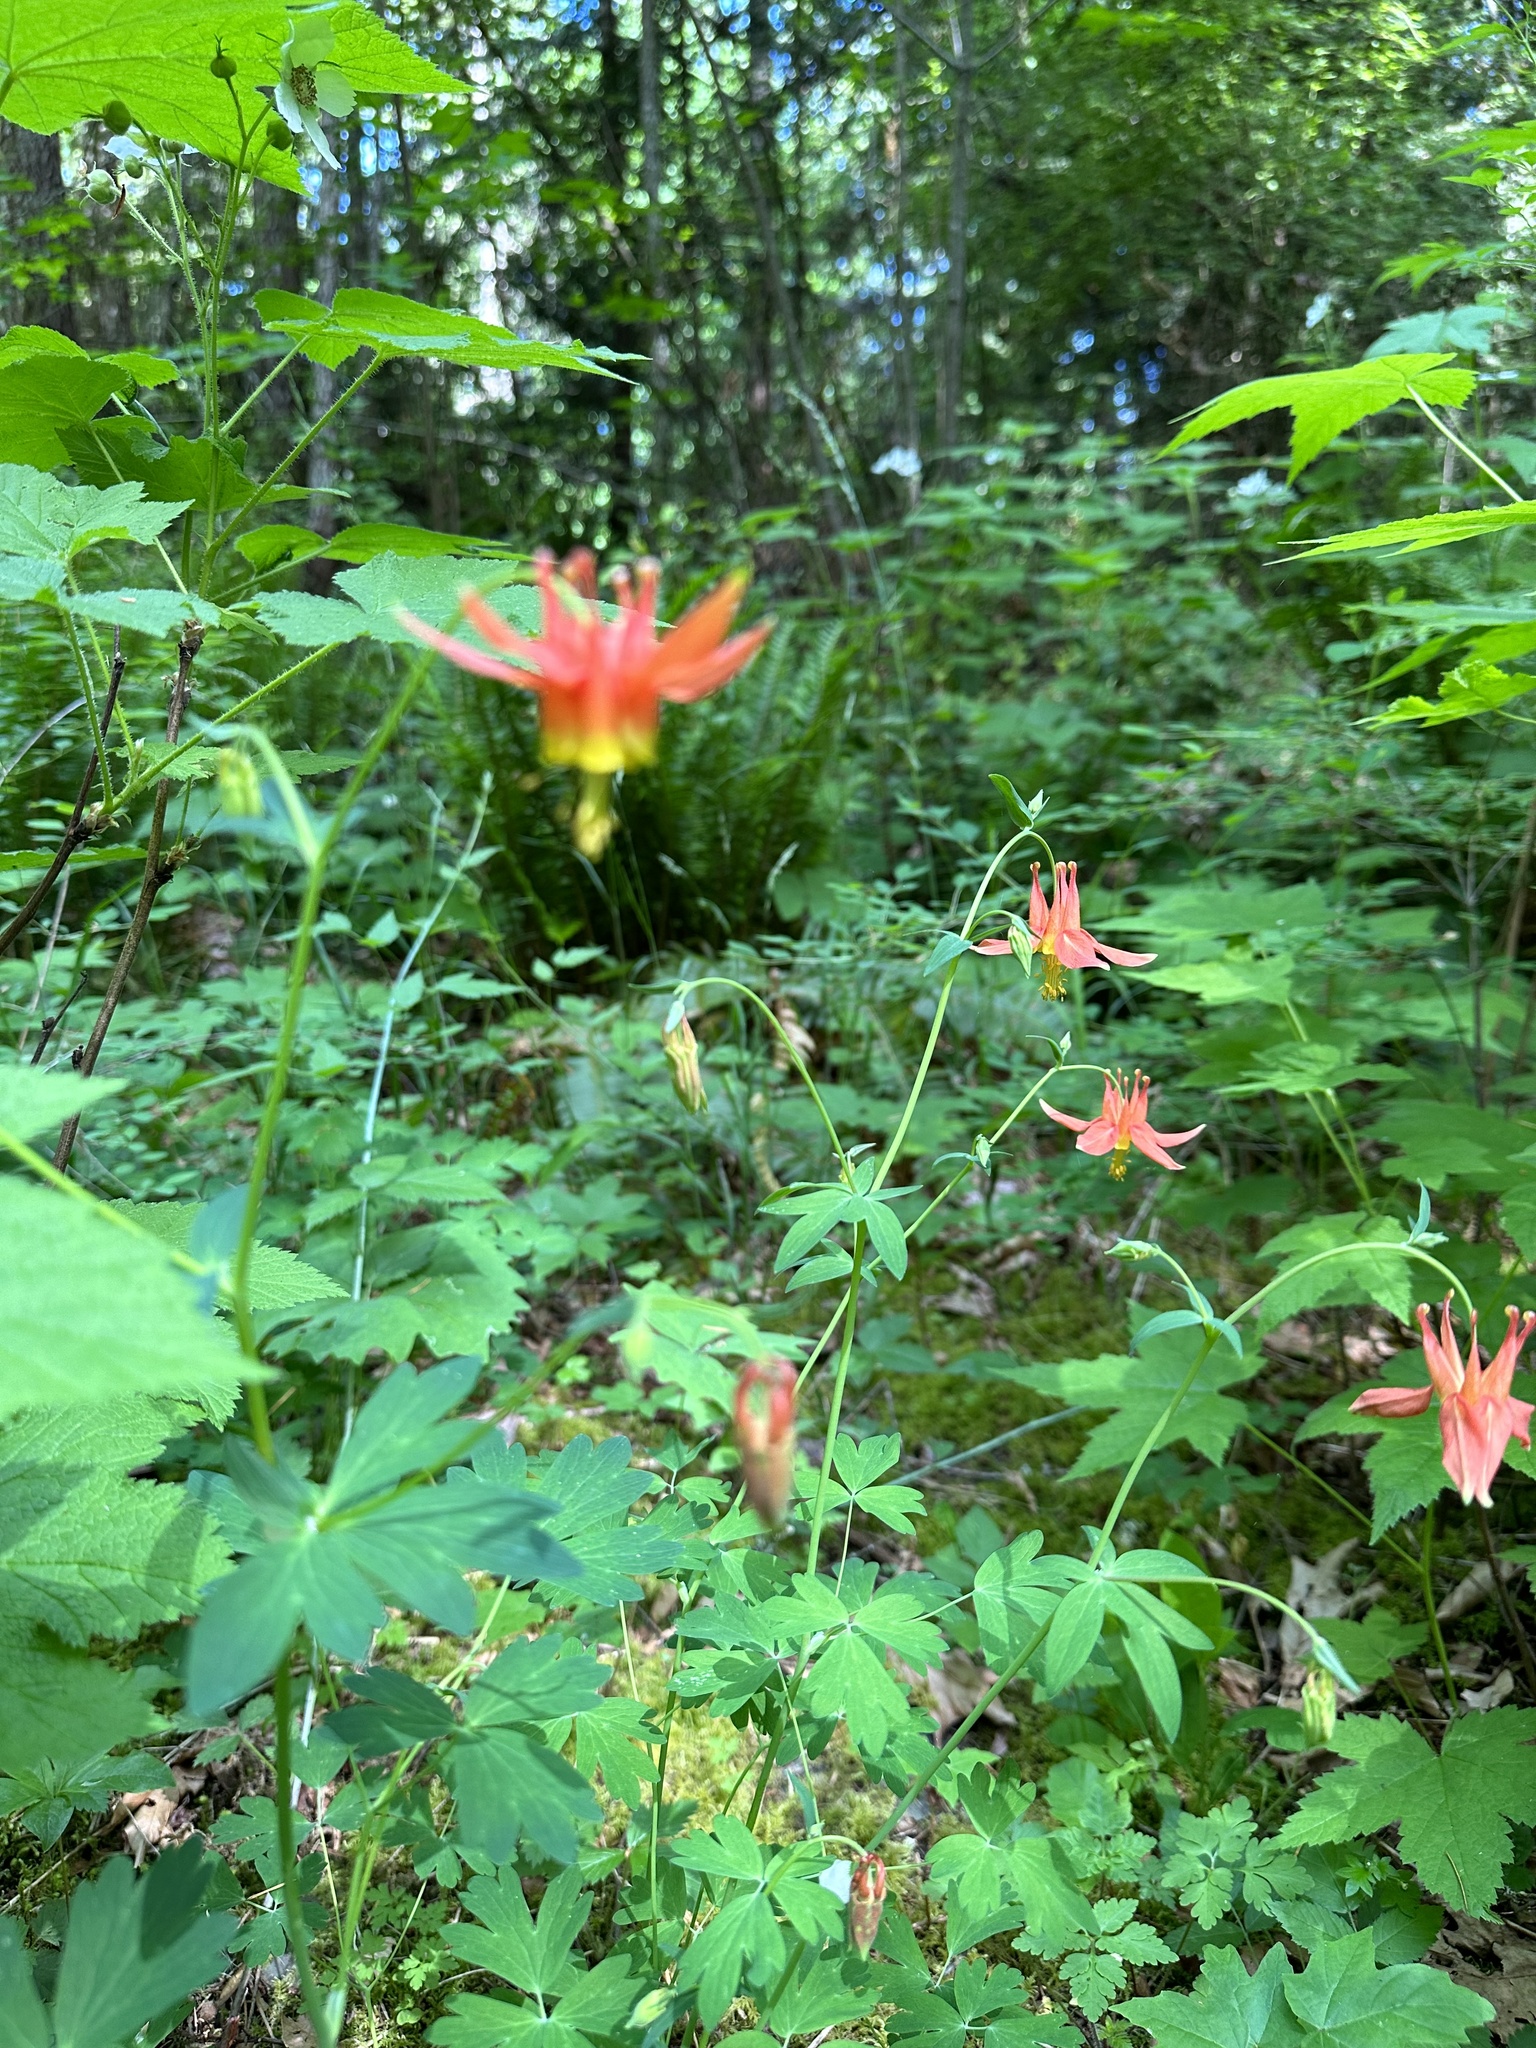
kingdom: Plantae
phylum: Tracheophyta
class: Magnoliopsida
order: Ranunculales
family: Ranunculaceae
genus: Aquilegia
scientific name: Aquilegia formosa
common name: Sitka columbine
